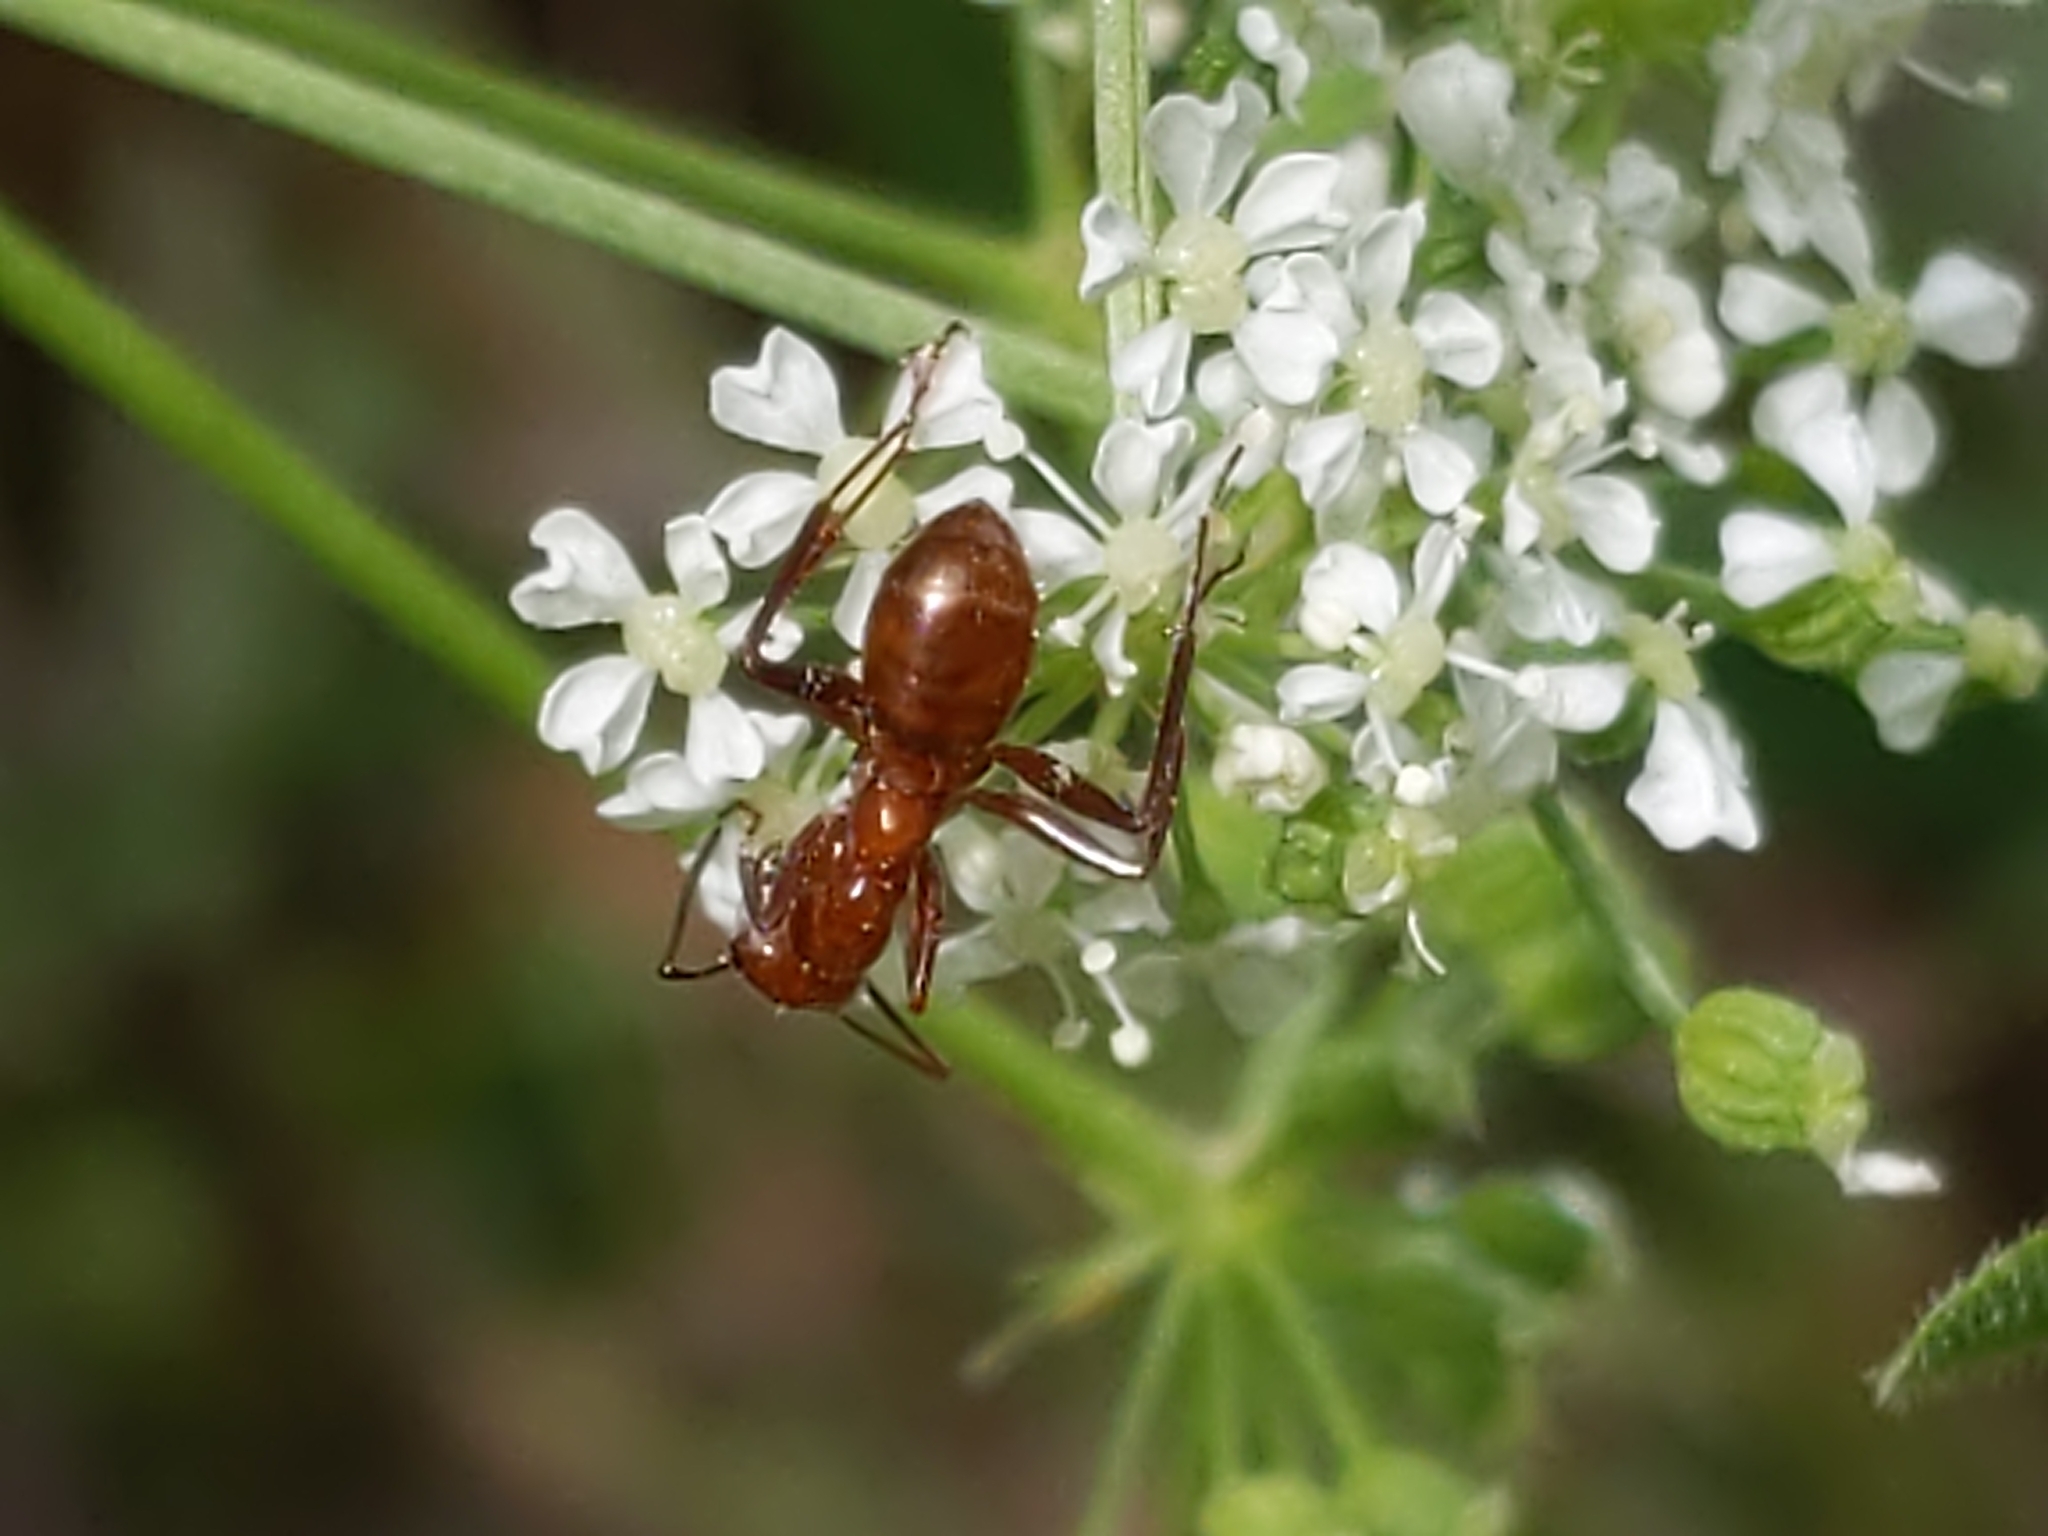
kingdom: Animalia
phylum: Arthropoda
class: Insecta
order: Hymenoptera
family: Formicidae
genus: Formica
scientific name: Formica
